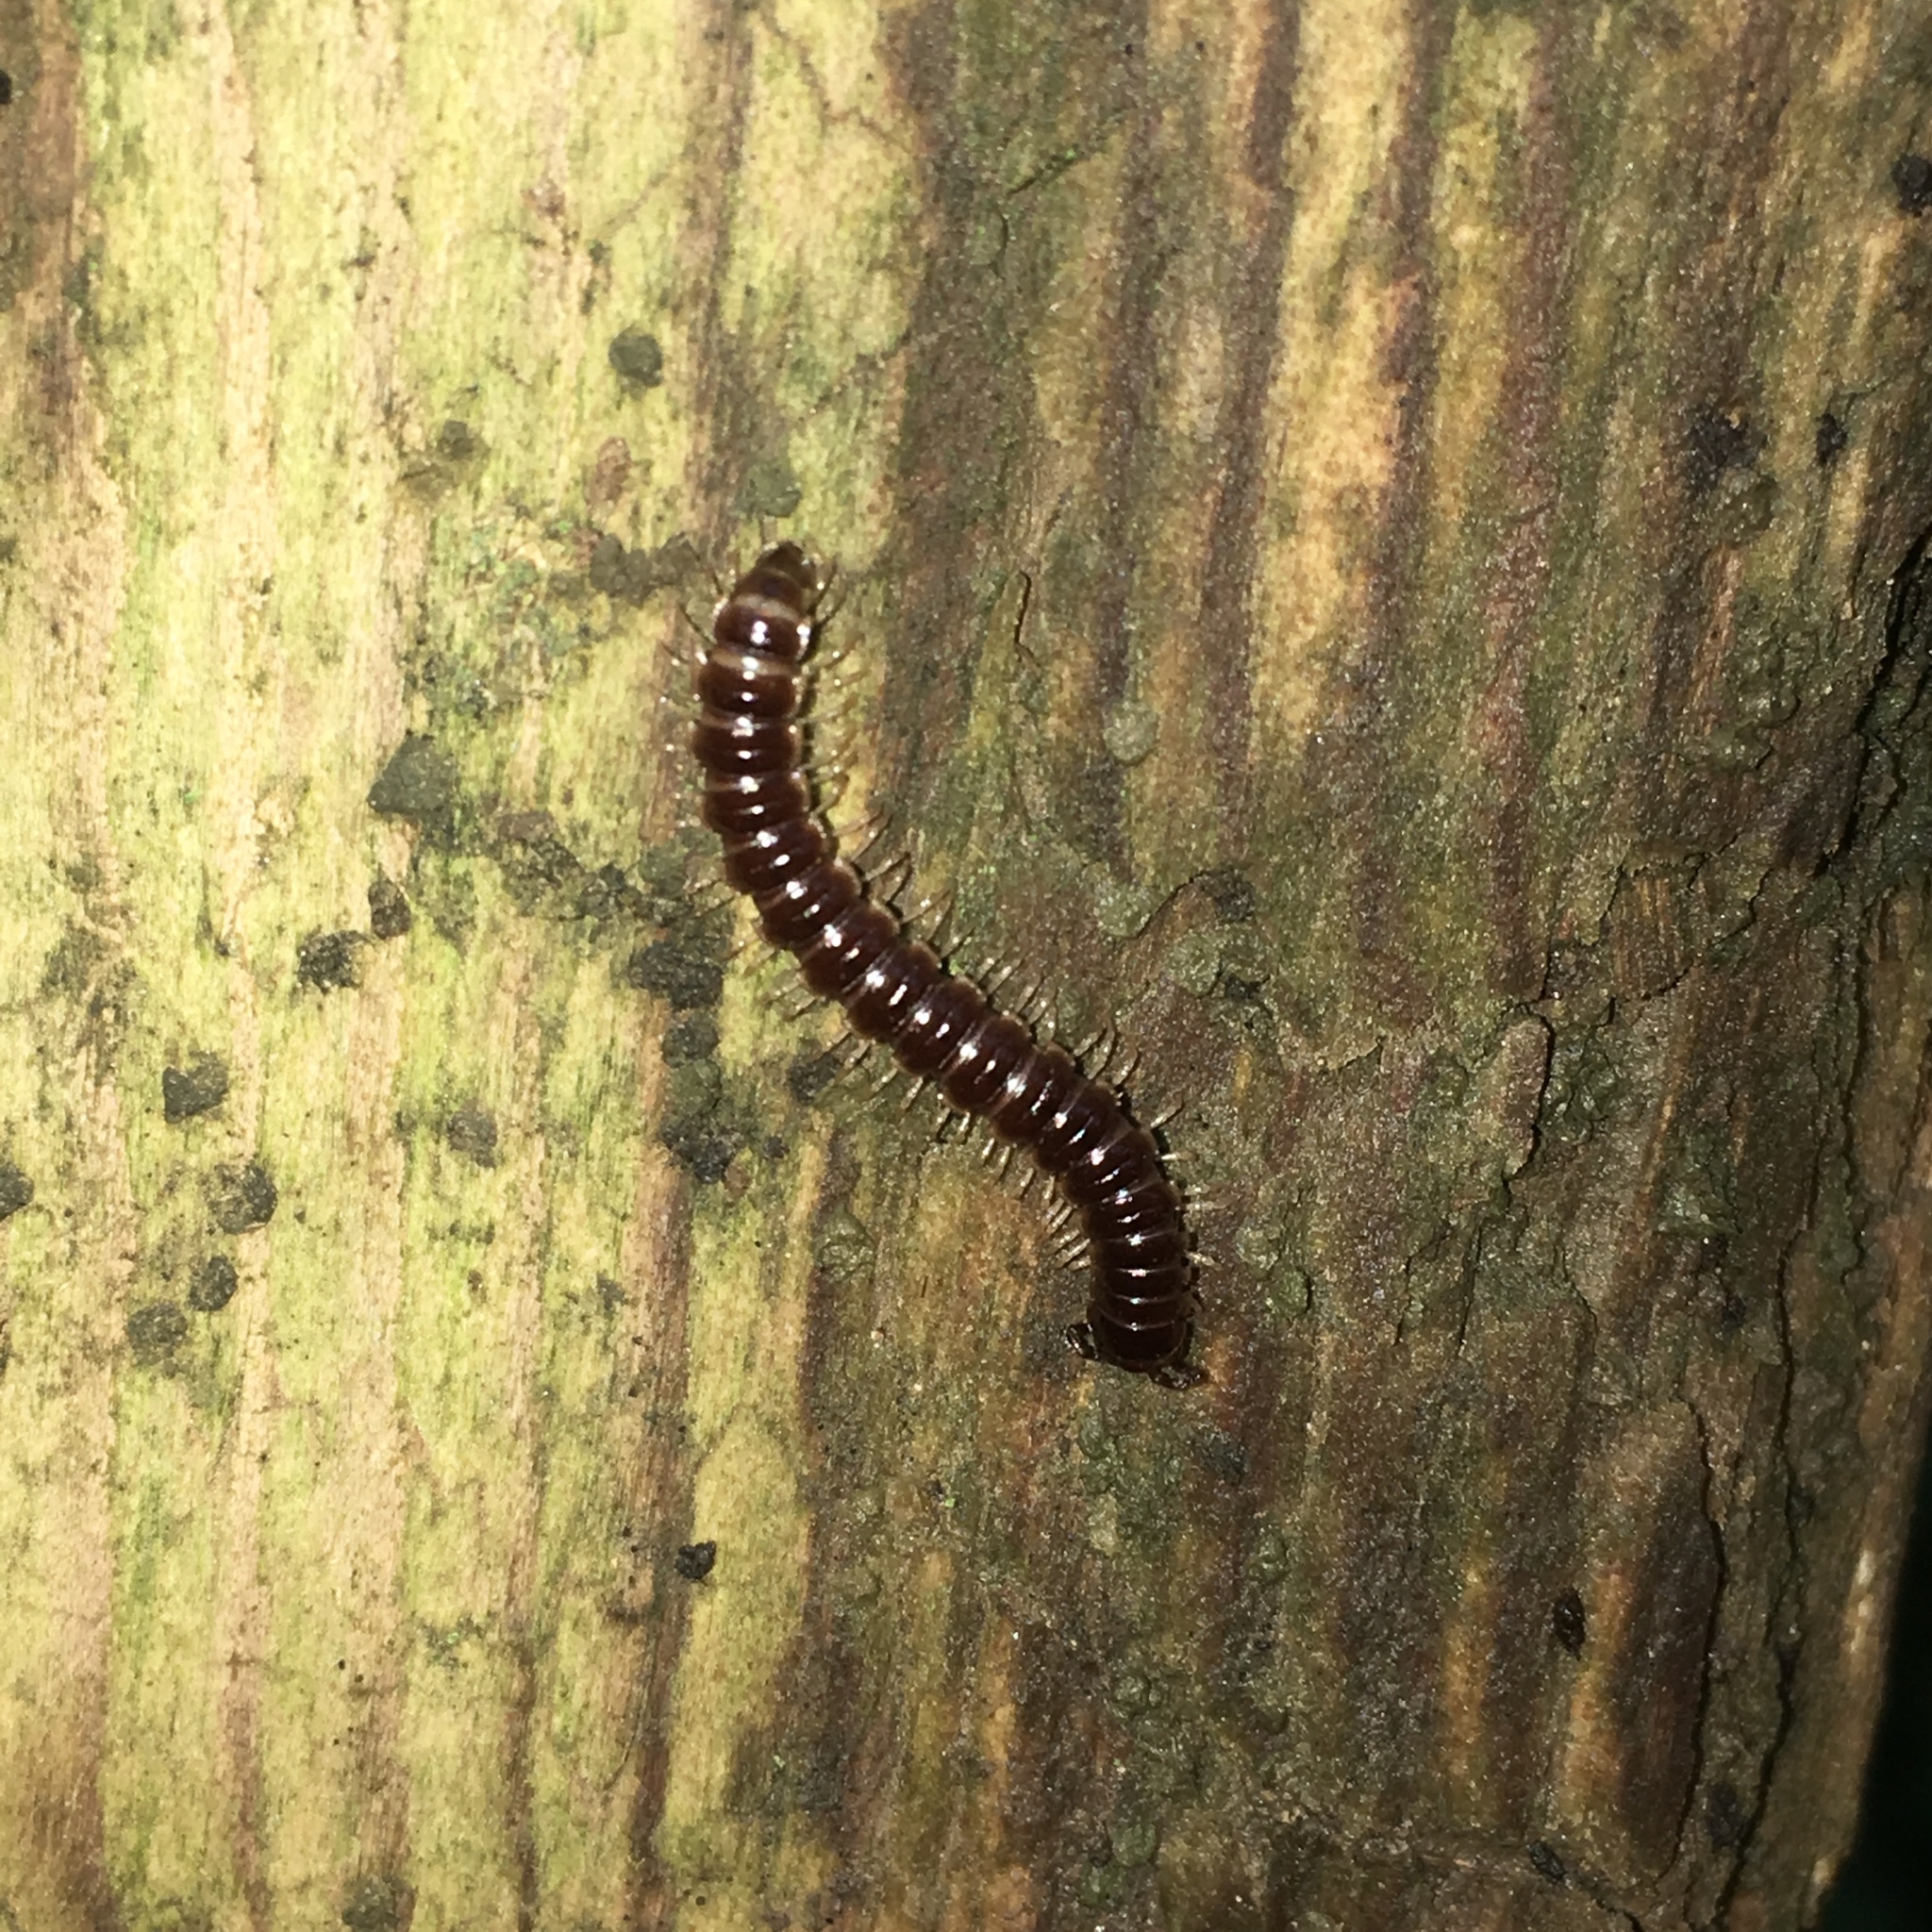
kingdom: Animalia
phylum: Arthropoda
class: Diplopoda
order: Polydesmida
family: Paradoxosomatidae
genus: Oxidus
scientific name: Oxidus gracilis
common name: Greenhouse millipede
